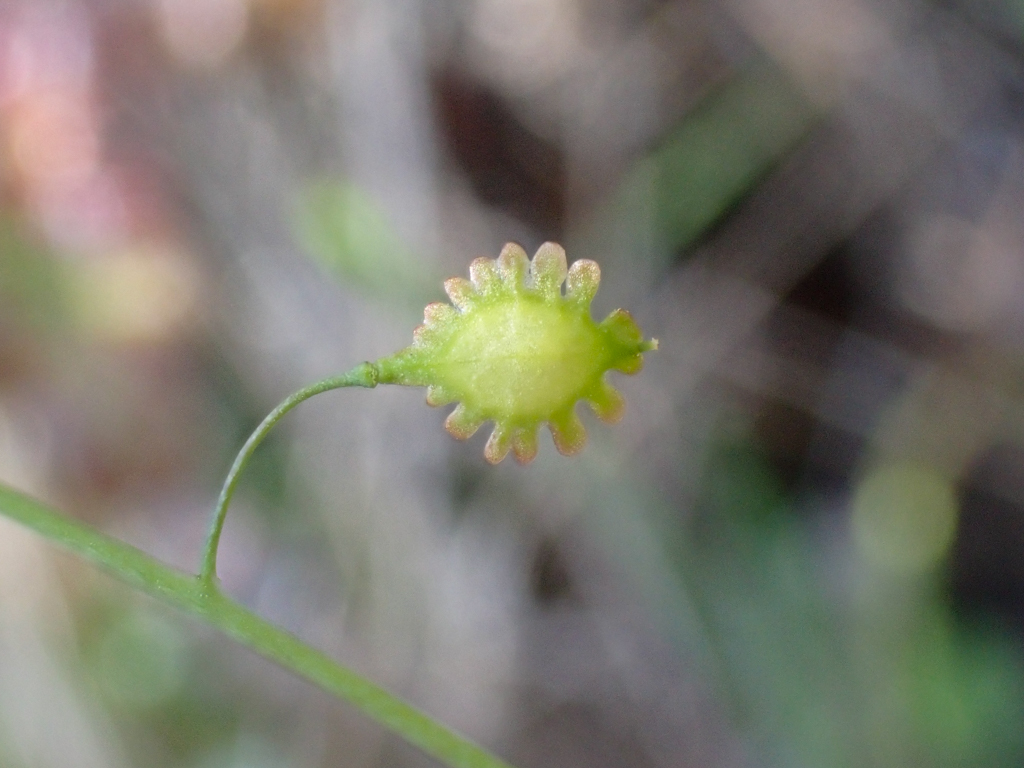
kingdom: Plantae
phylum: Tracheophyta
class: Magnoliopsida
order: Brassicales
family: Brassicaceae
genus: Thysanocarpus
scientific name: Thysanocarpus laciniatus
